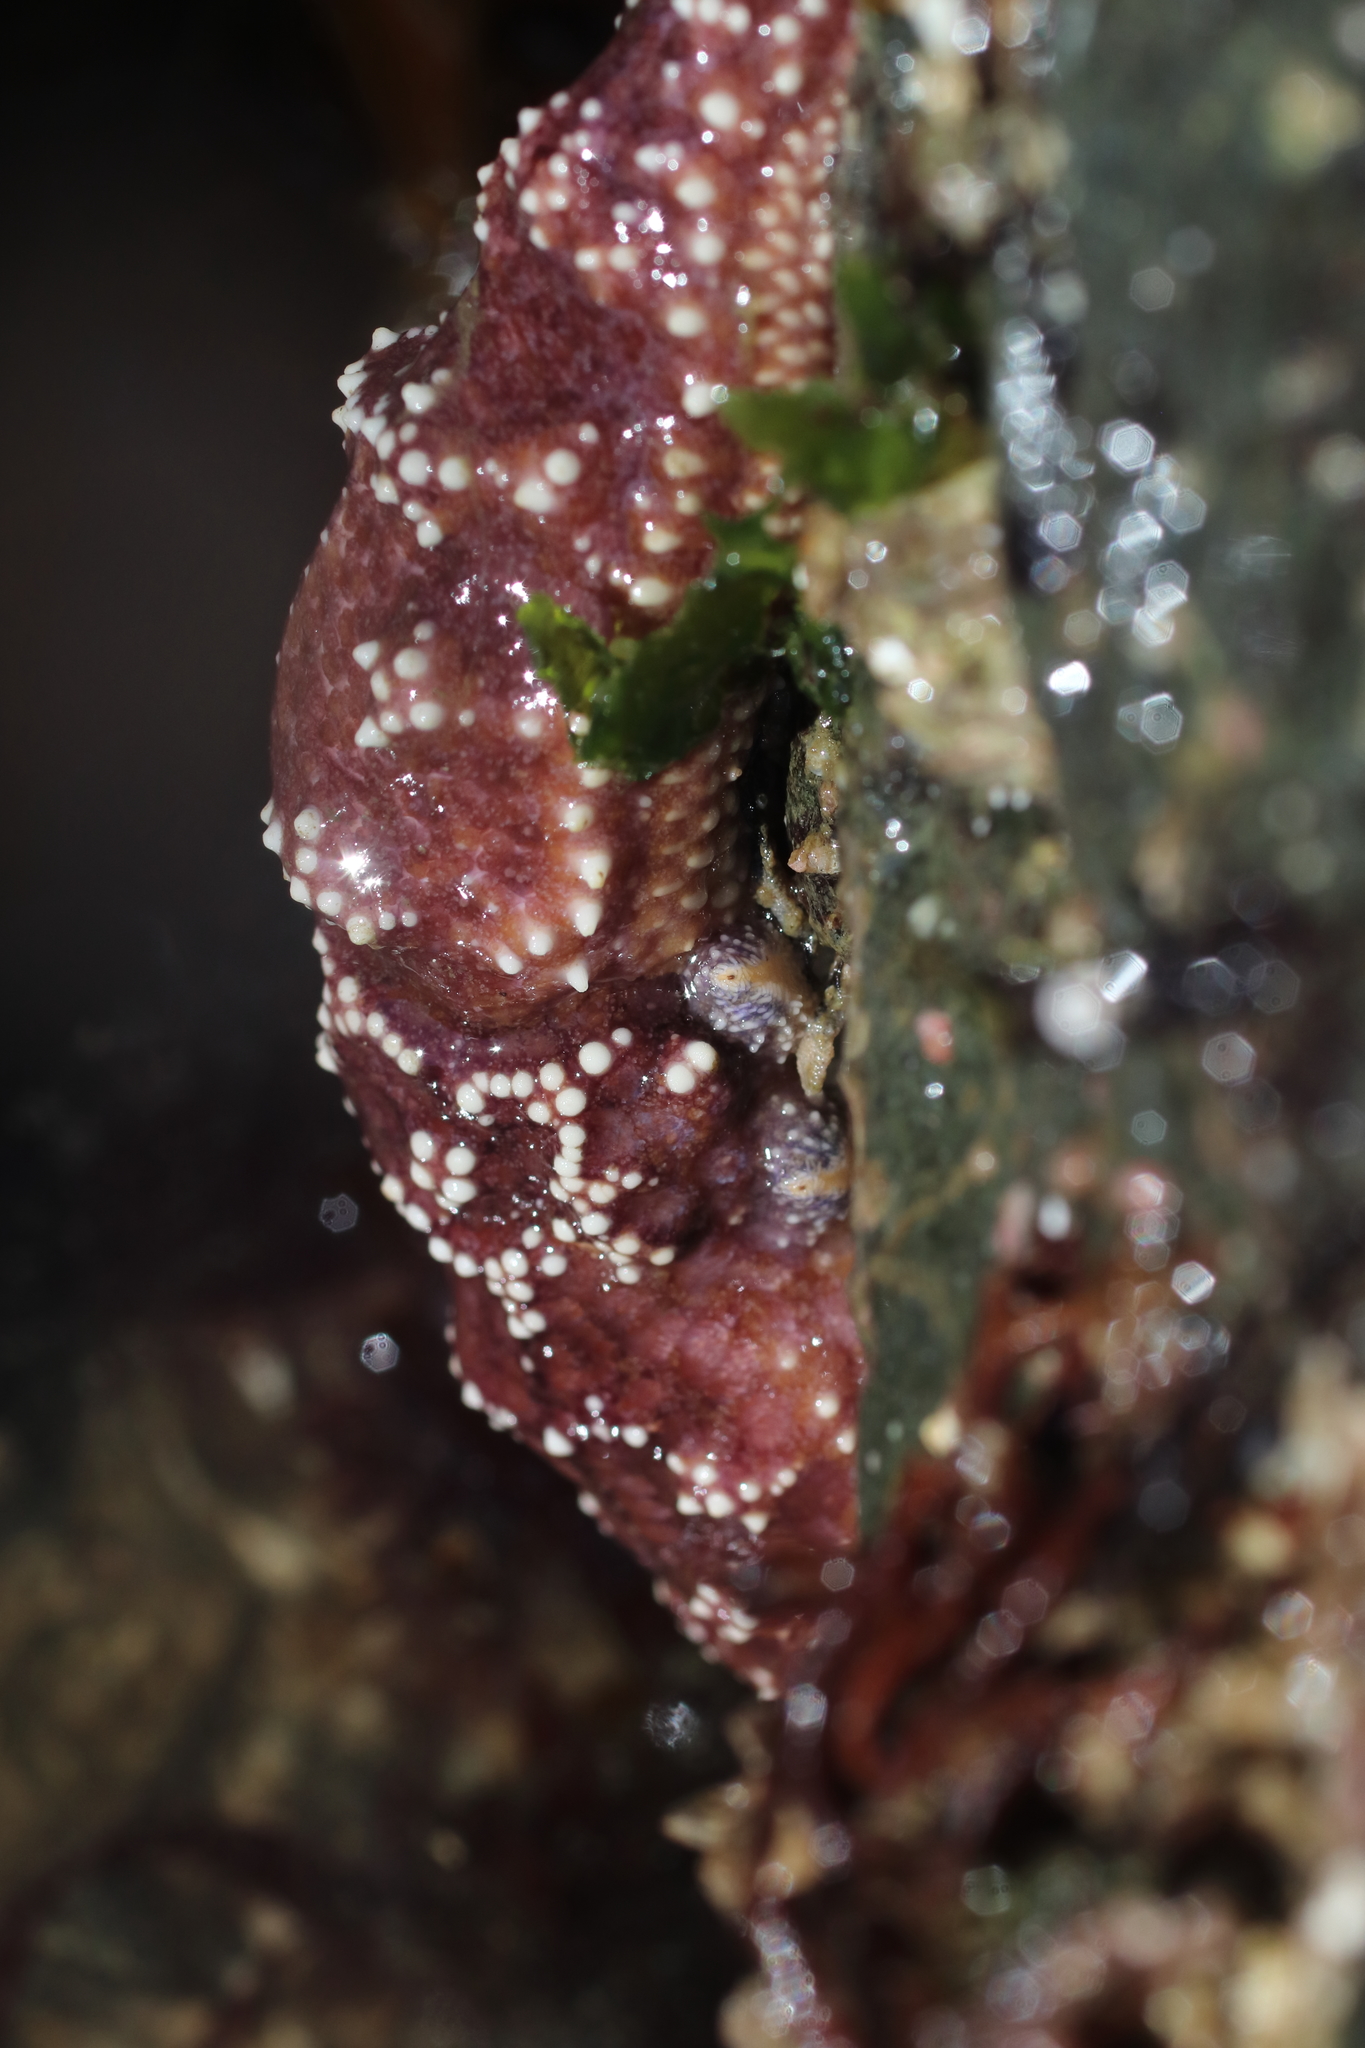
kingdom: Animalia
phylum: Echinodermata
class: Asteroidea
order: Forcipulatida
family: Asteriidae
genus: Pisaster
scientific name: Pisaster ochraceus
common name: Ochre stars
